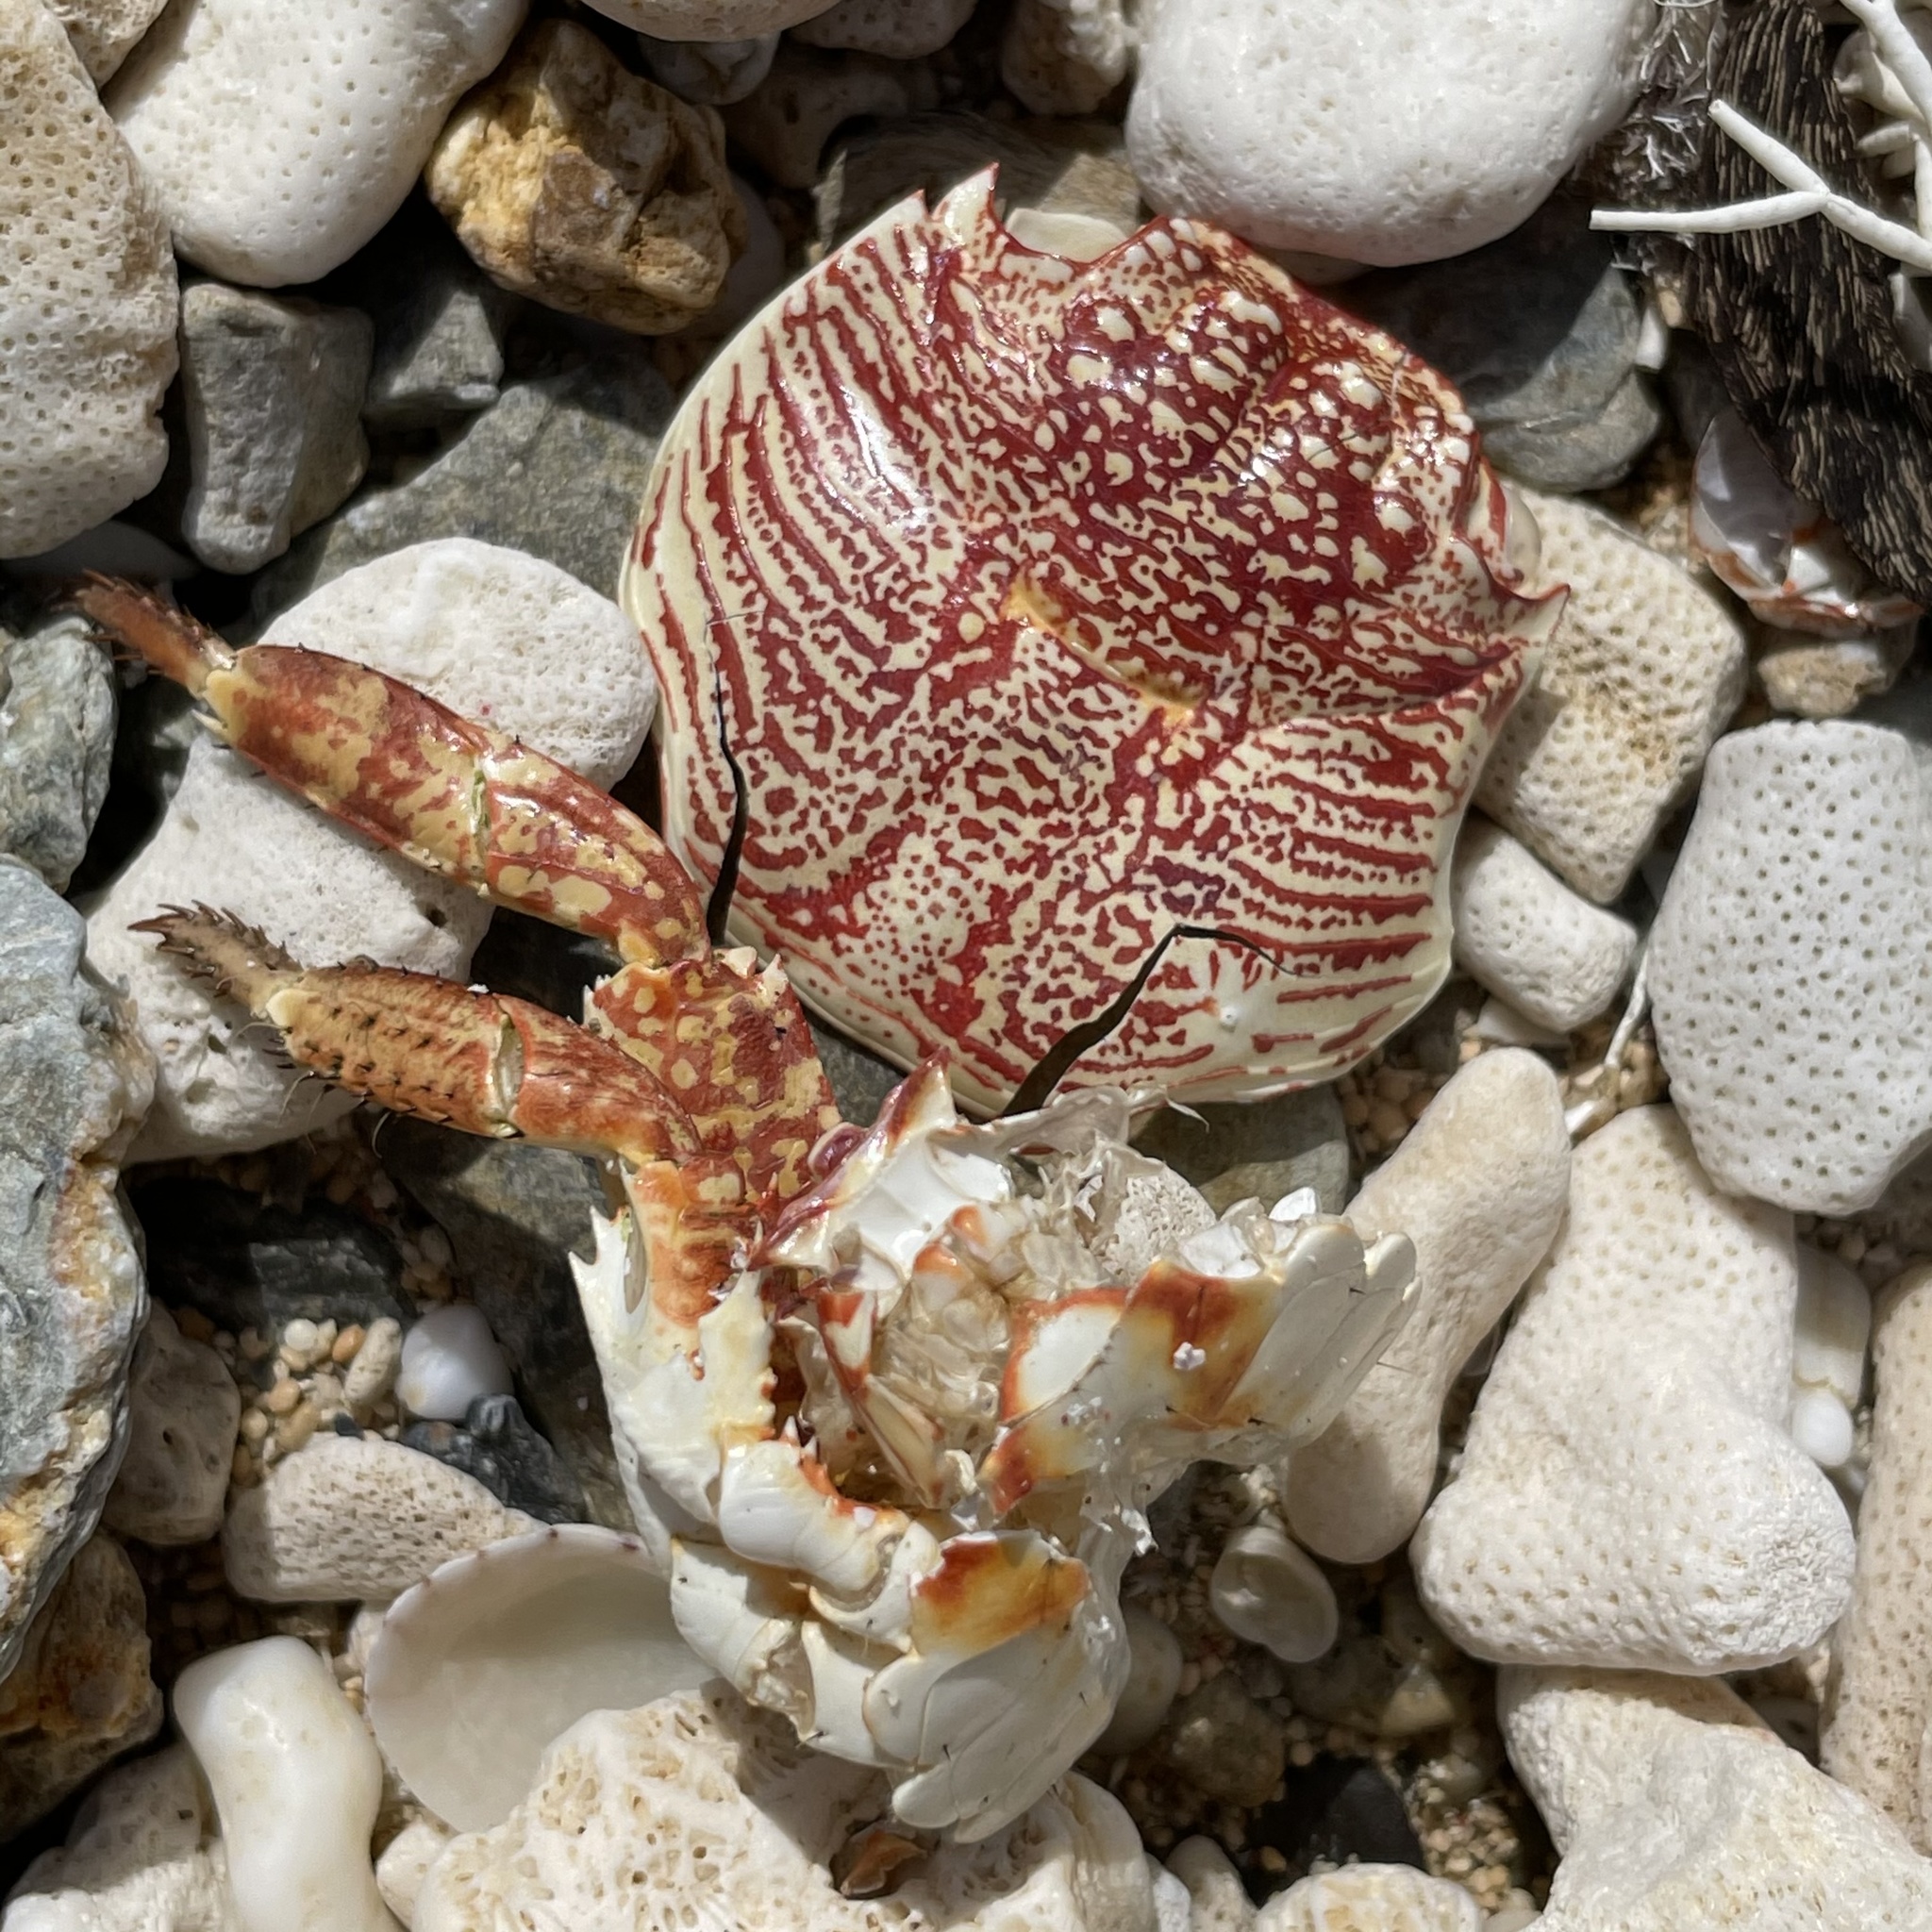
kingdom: Animalia
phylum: Arthropoda
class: Malacostraca
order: Decapoda
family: Grapsidae
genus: Grapsus
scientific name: Grapsus tenuicrustatus
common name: Natal lightfoot crab
